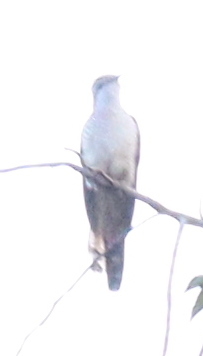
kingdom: Animalia
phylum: Chordata
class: Aves
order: Cuculiformes
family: Cuculidae
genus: Cacomantis
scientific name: Cacomantis sonneratii
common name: Banded bay cuckoo
